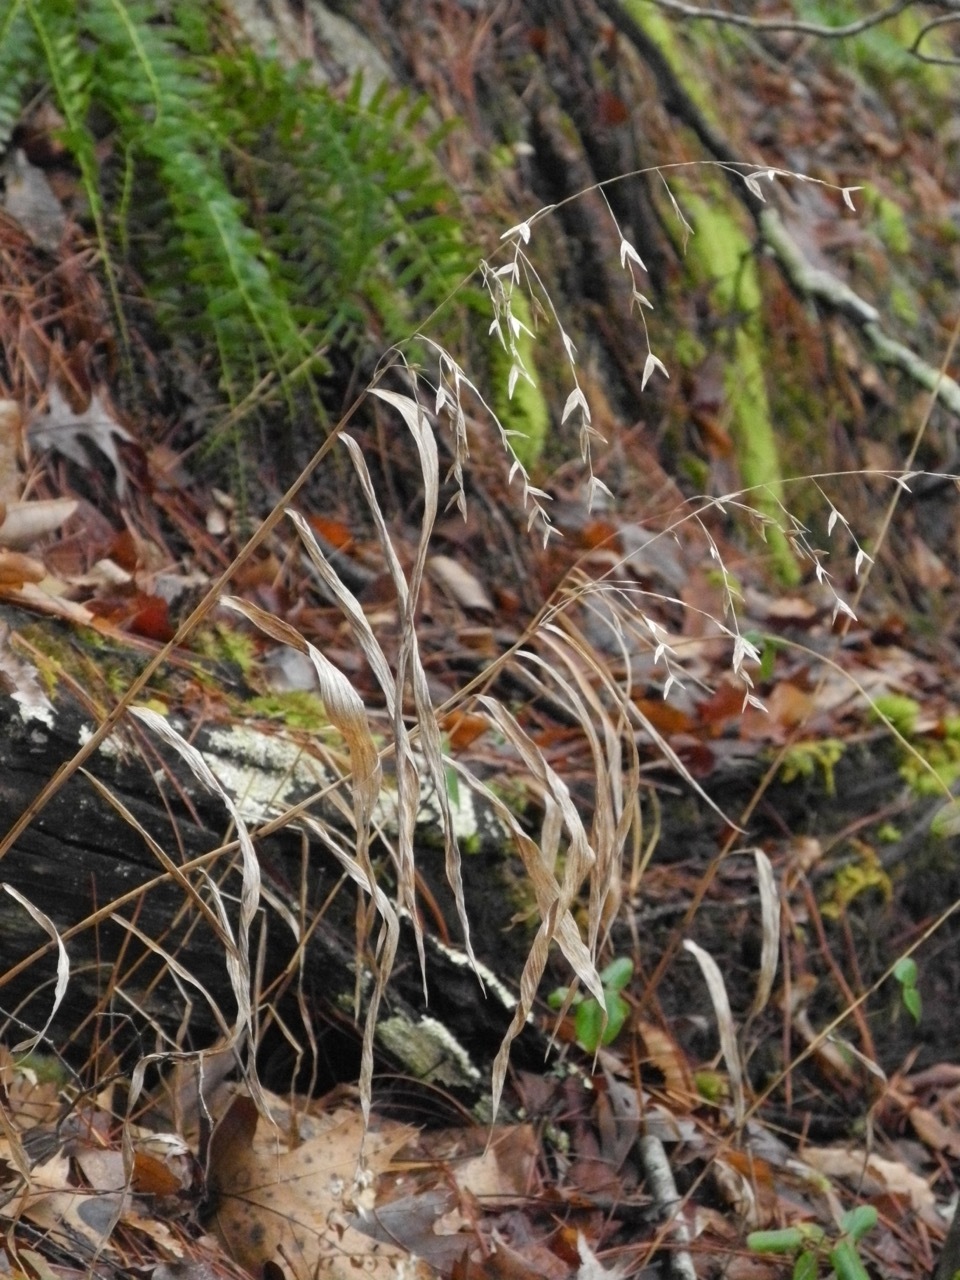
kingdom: Plantae
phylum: Tracheophyta
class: Liliopsida
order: Poales
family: Poaceae
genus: Chasmanthium
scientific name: Chasmanthium latifolium
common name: Broad-leaved chasmanthium
